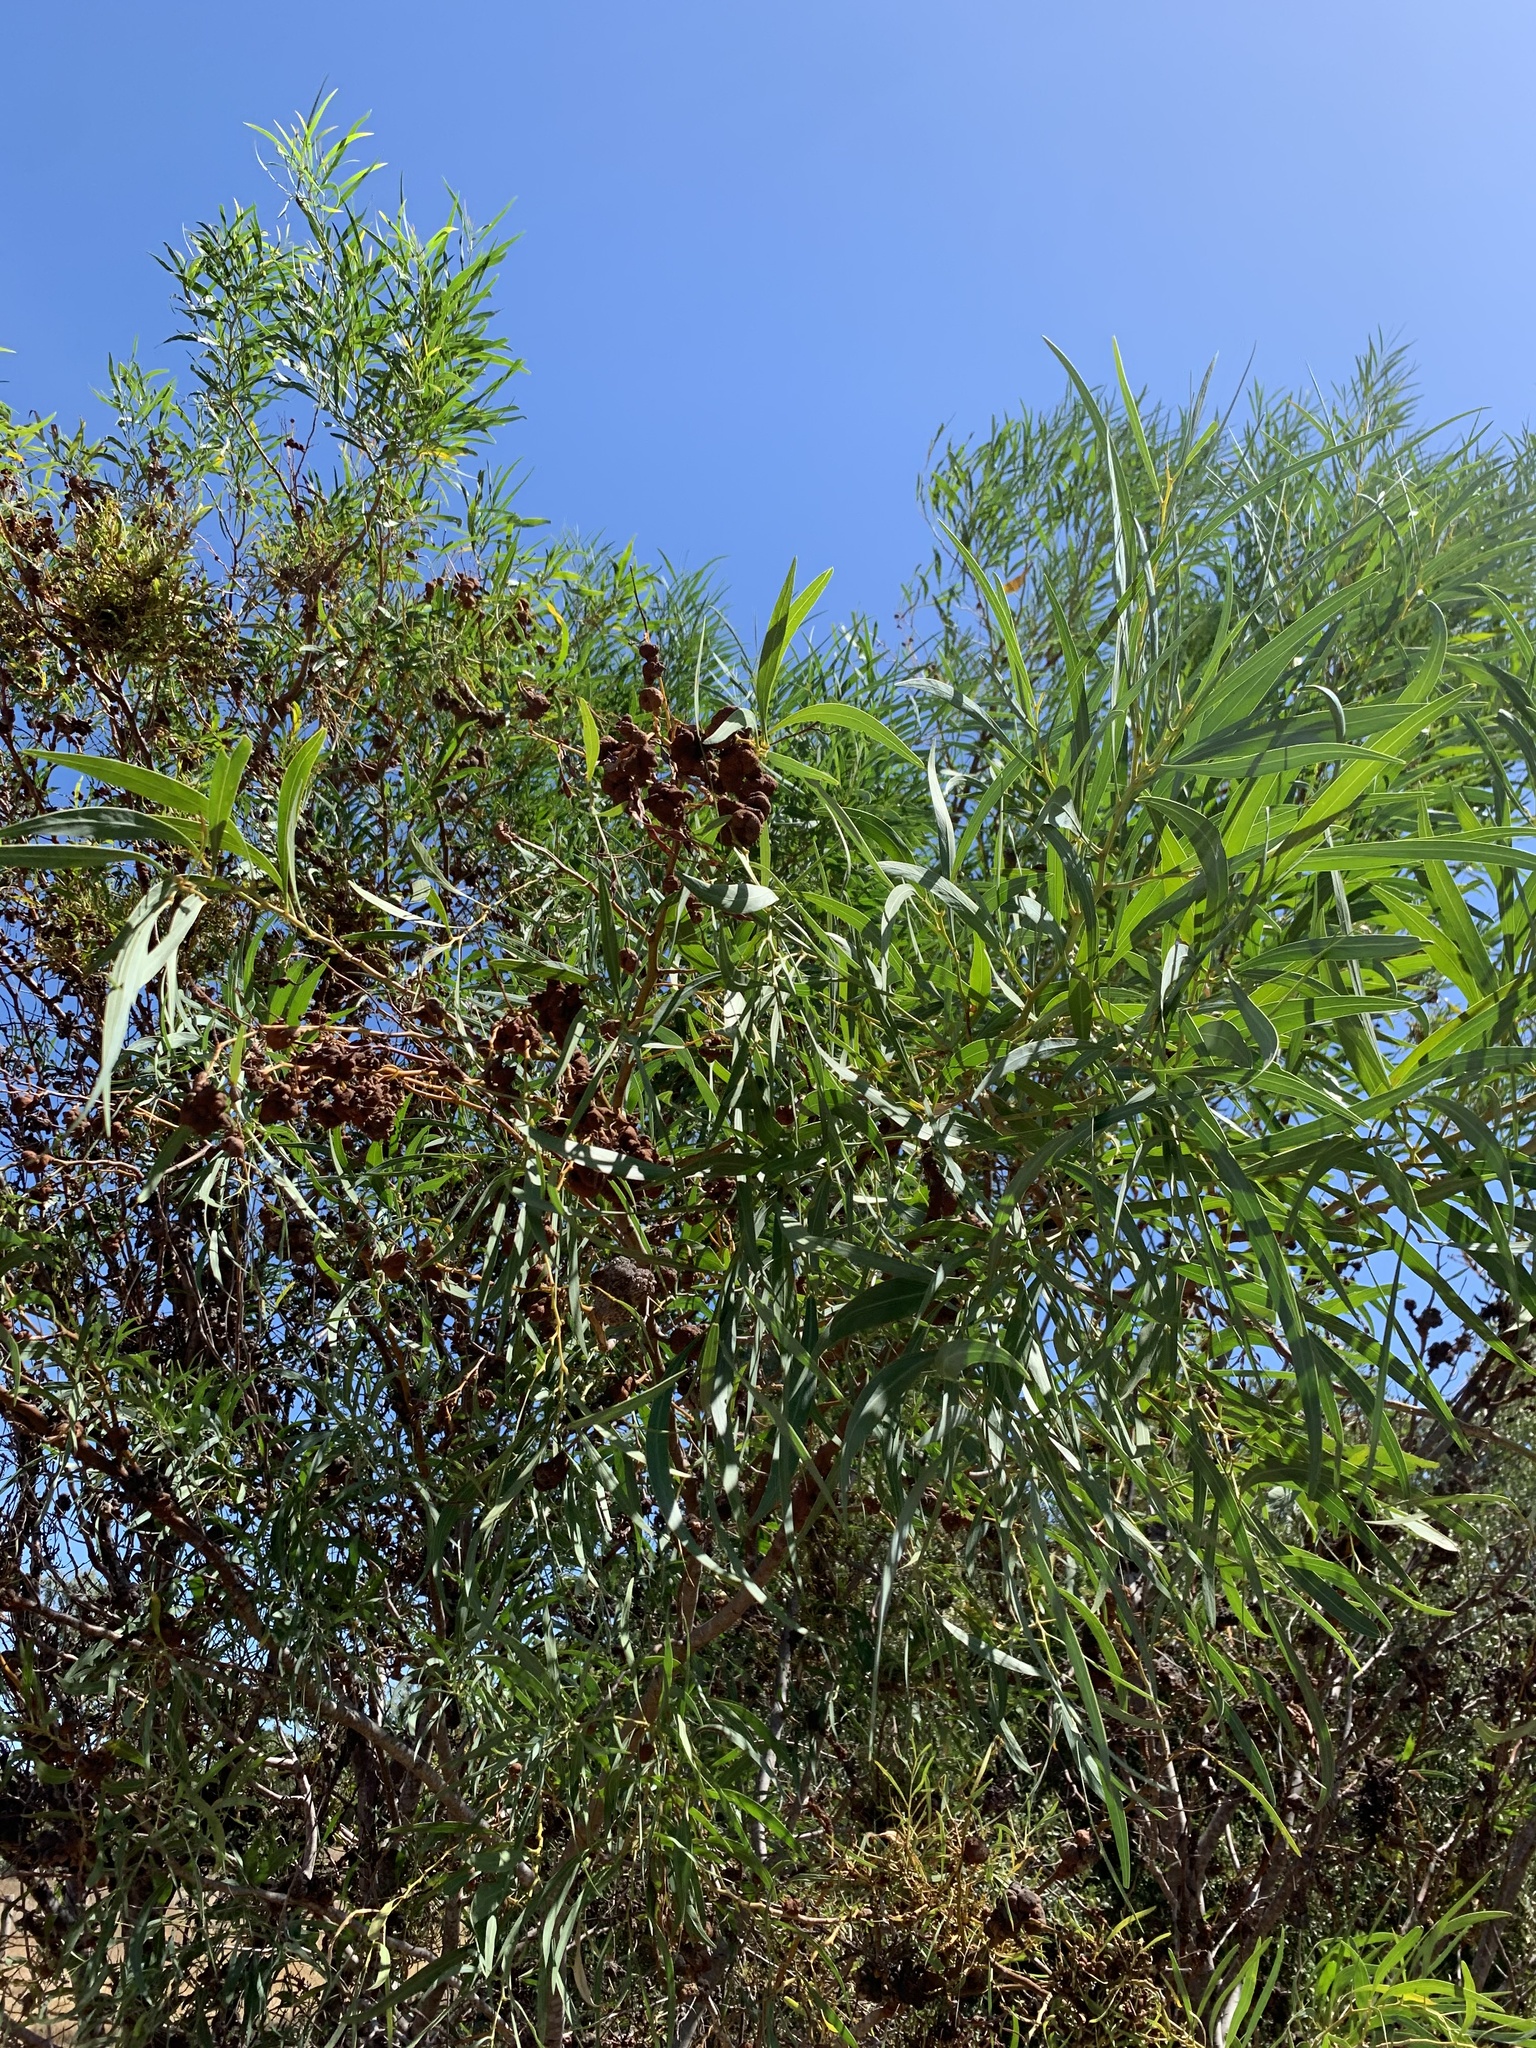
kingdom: Plantae
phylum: Tracheophyta
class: Magnoliopsida
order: Fabales
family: Fabaceae
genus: Acacia
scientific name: Acacia saligna
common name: Orange wattle
